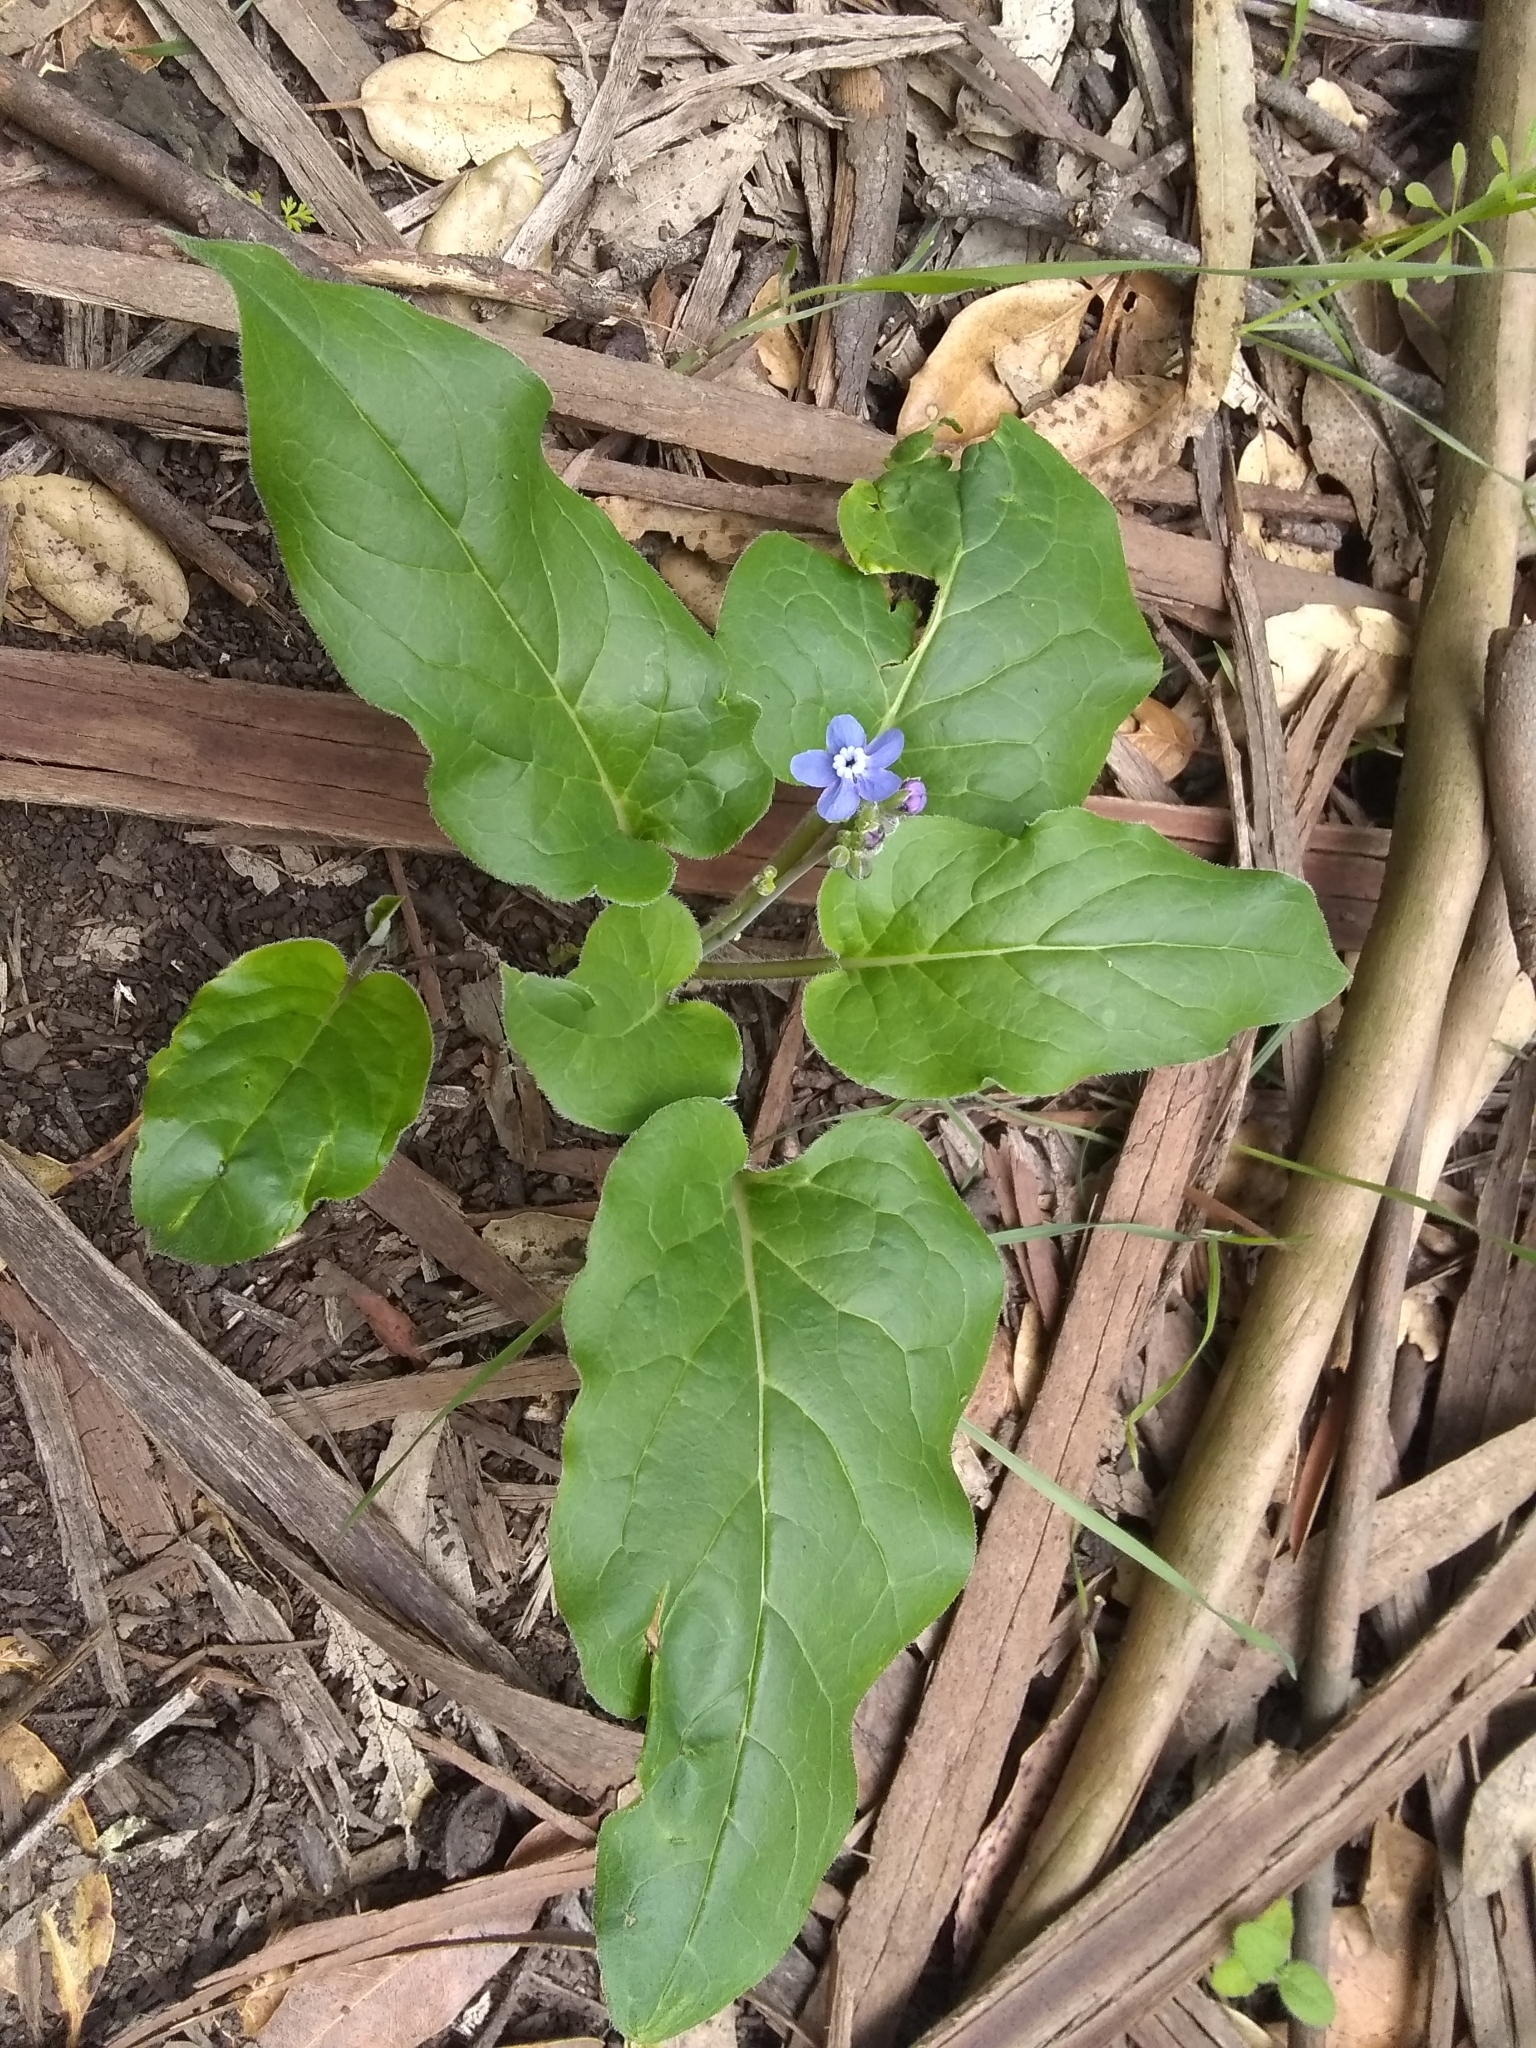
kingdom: Plantae
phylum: Tracheophyta
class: Magnoliopsida
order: Boraginales
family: Boraginaceae
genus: Adelinia
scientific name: Adelinia grande
